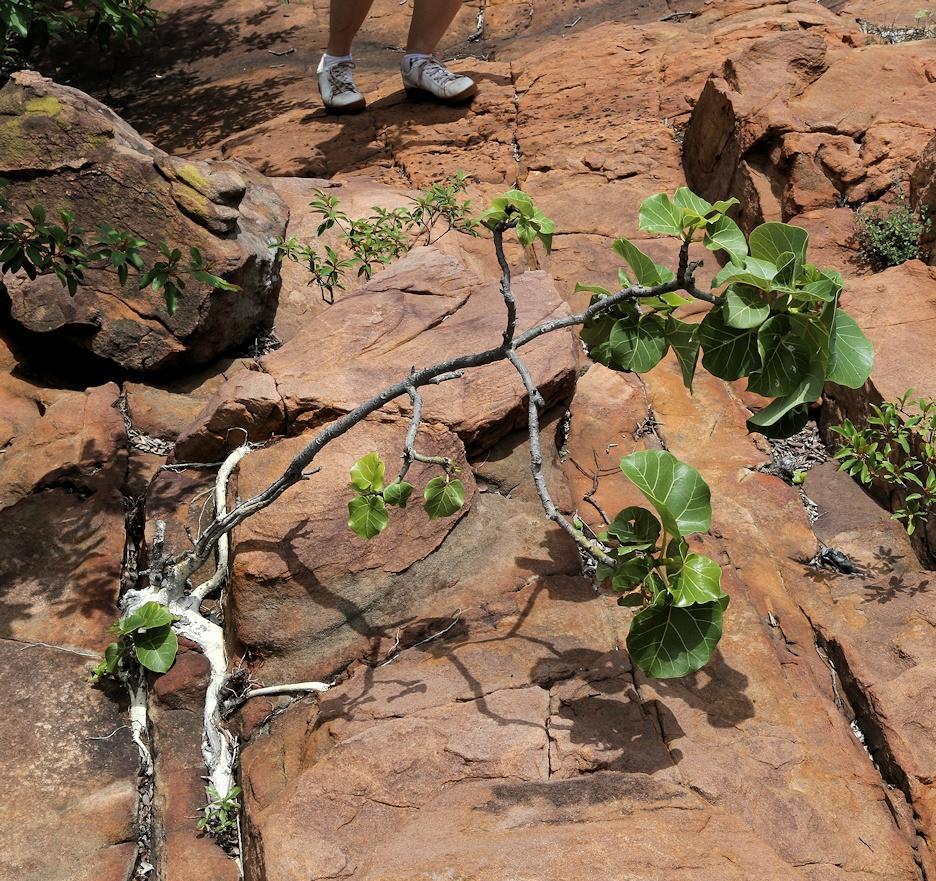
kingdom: Plantae
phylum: Tracheophyta
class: Magnoliopsida
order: Rosales
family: Moraceae
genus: Ficus
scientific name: Ficus abutilifolia
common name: Large-leaved rock fig
